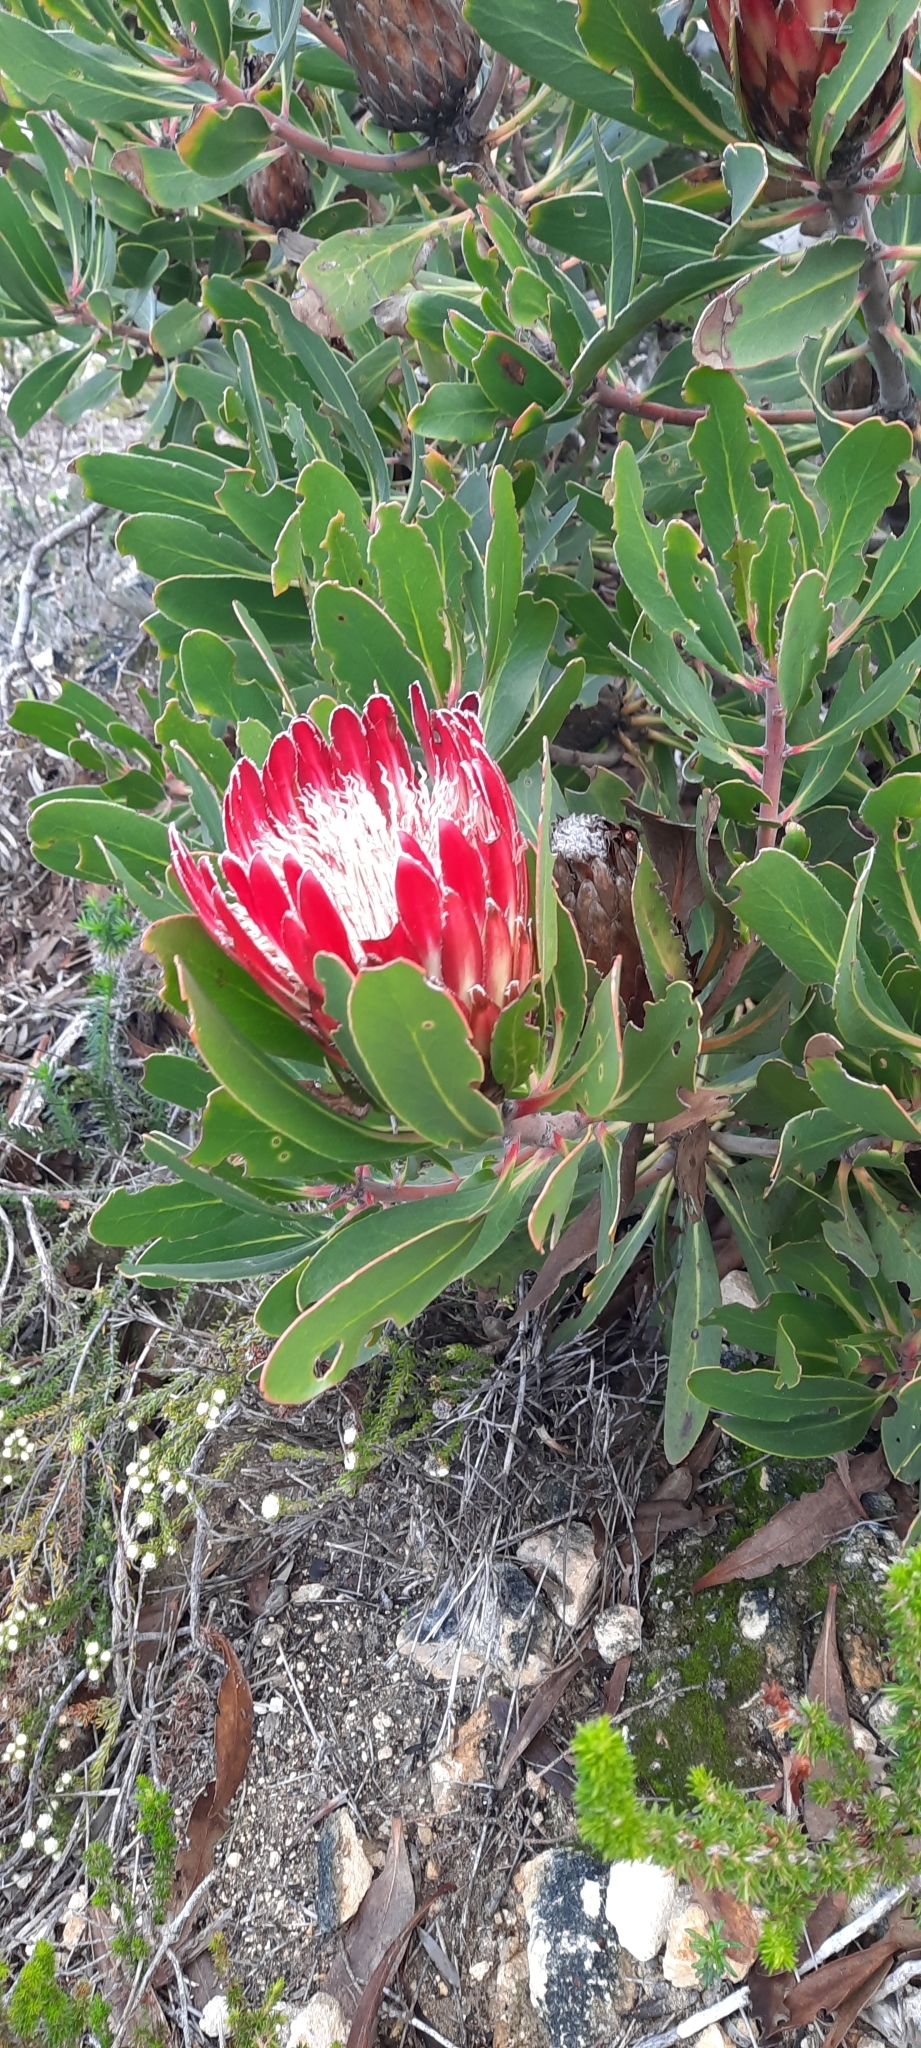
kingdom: Plantae
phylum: Tracheophyta
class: Magnoliopsida
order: Proteales
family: Proteaceae
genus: Protea
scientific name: Protea obtusifolia
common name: Bredasdorp sugarbush
